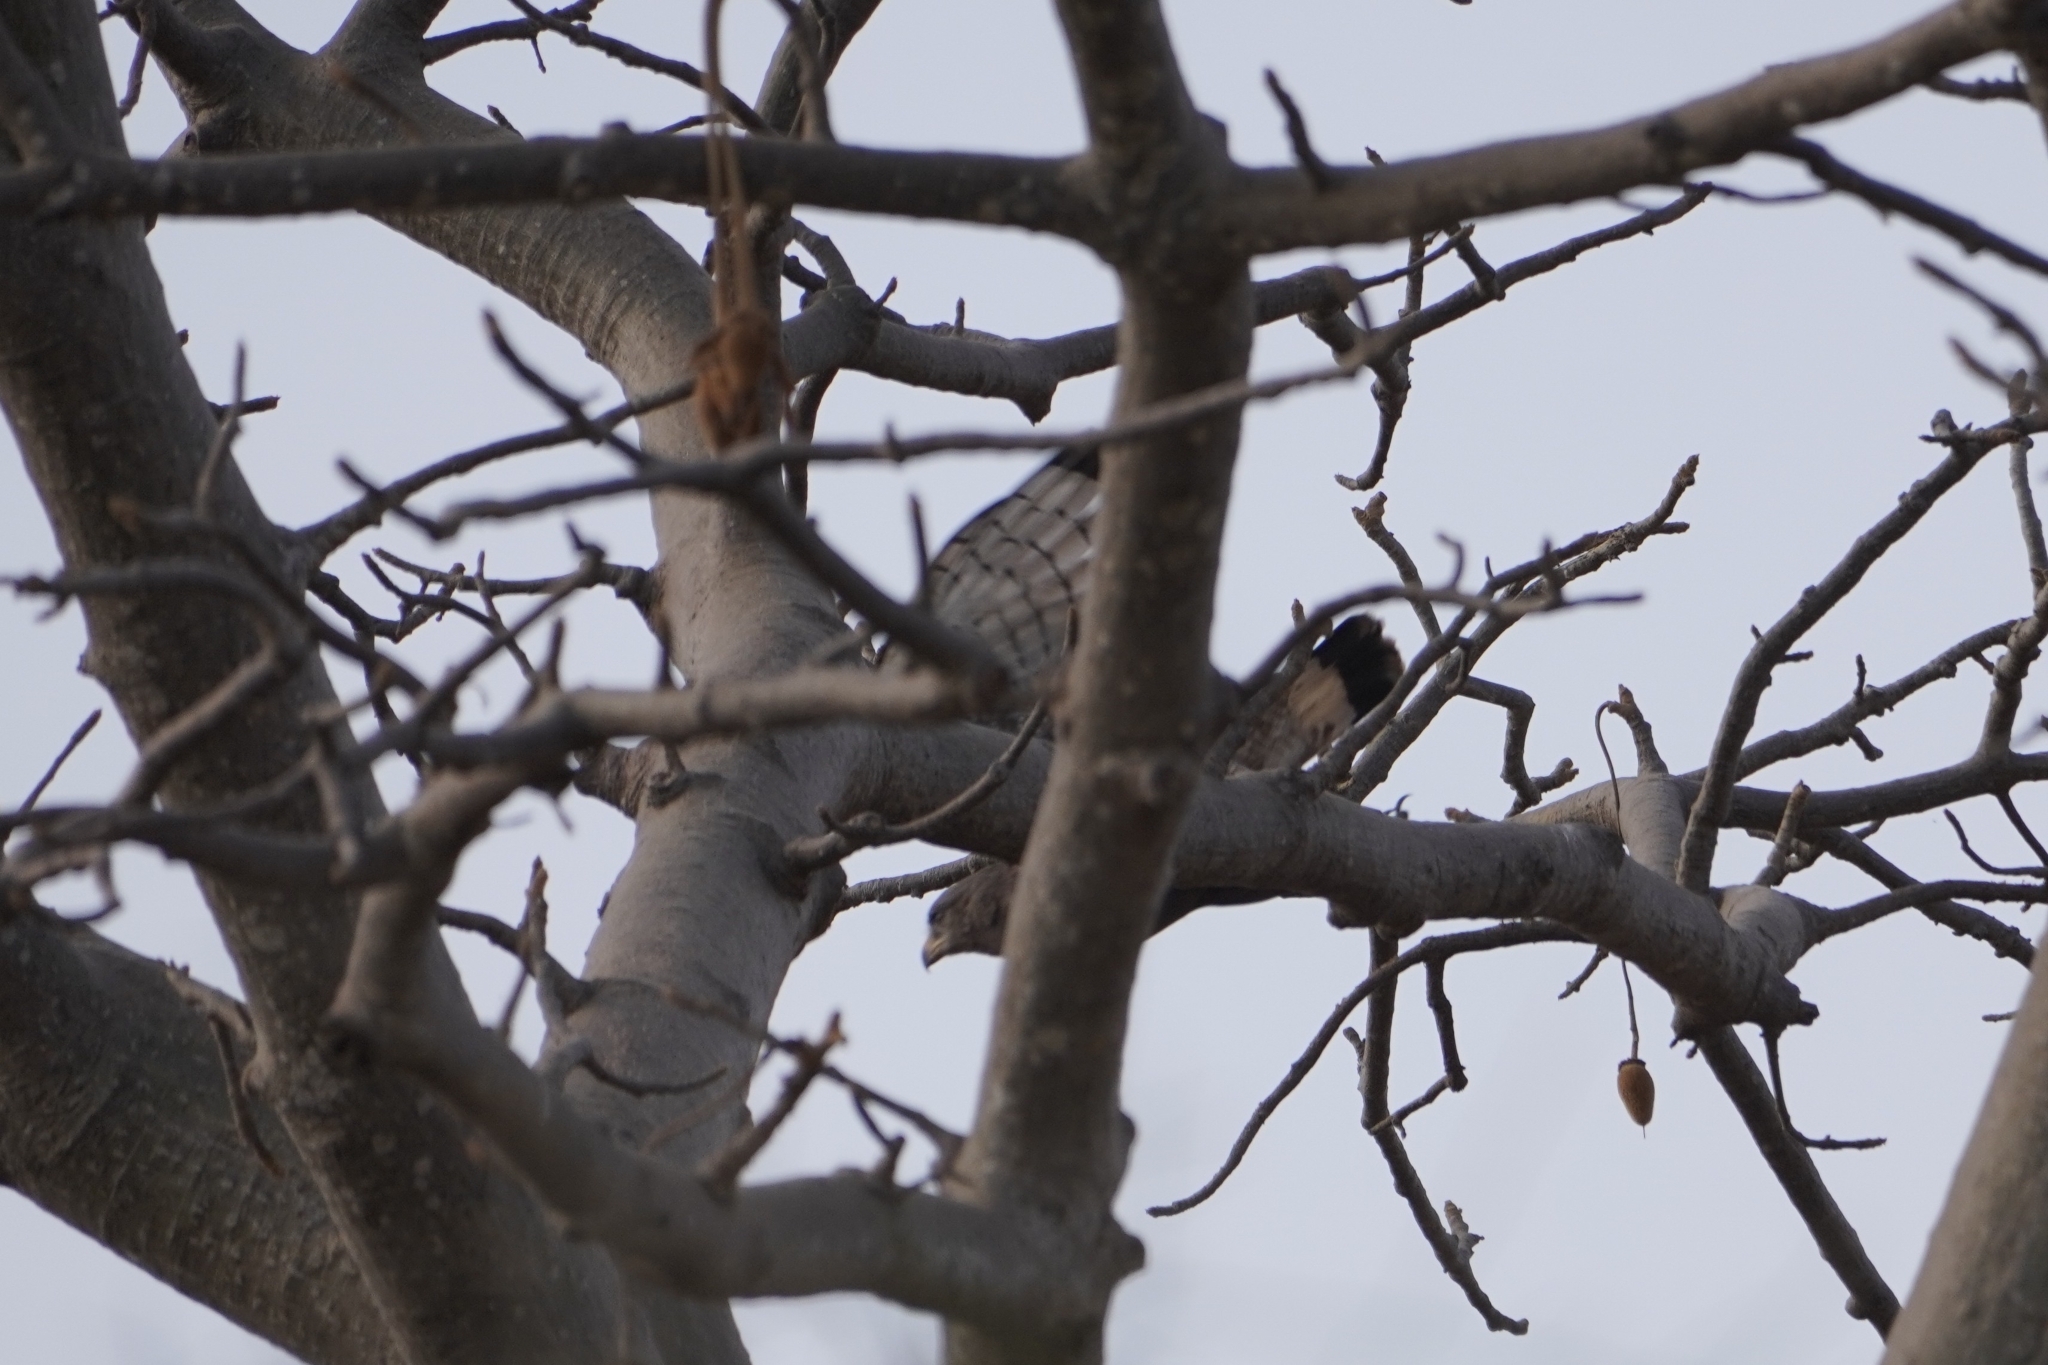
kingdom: Animalia
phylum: Chordata
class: Aves
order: Accipitriformes
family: Accipitridae
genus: Circaetus
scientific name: Circaetus cinerascens
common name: Western banded snake eagle
